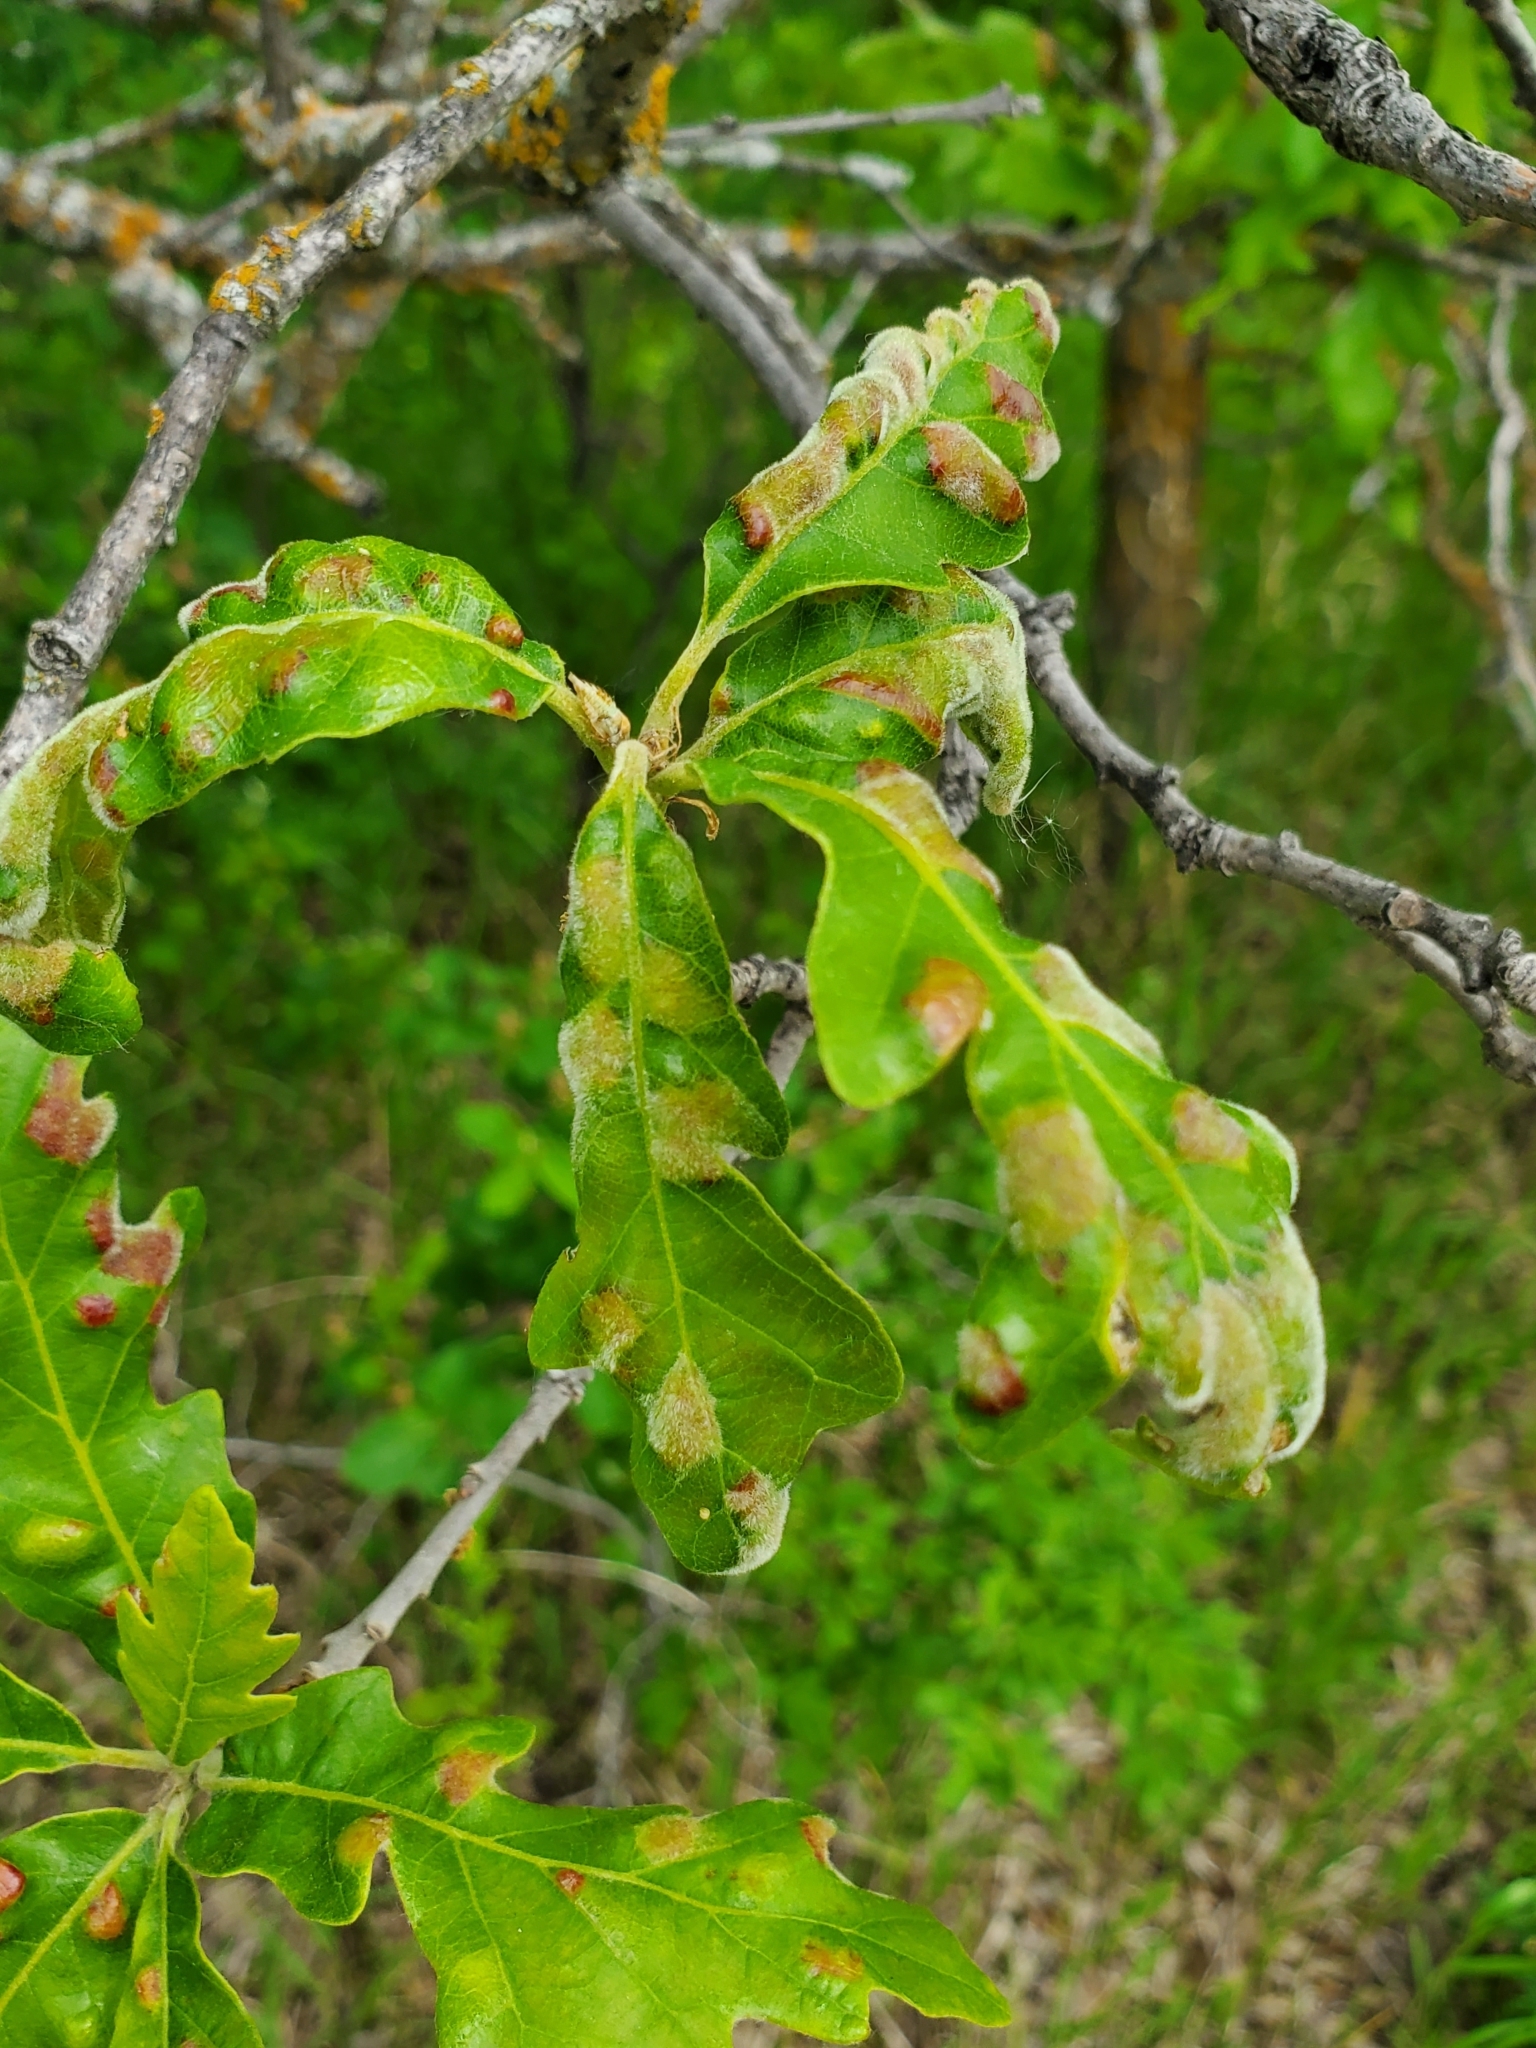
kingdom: Animalia
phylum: Arthropoda
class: Arachnida
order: Trombidiformes
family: Eriophyidae
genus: Aceria
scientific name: Aceria quercina
